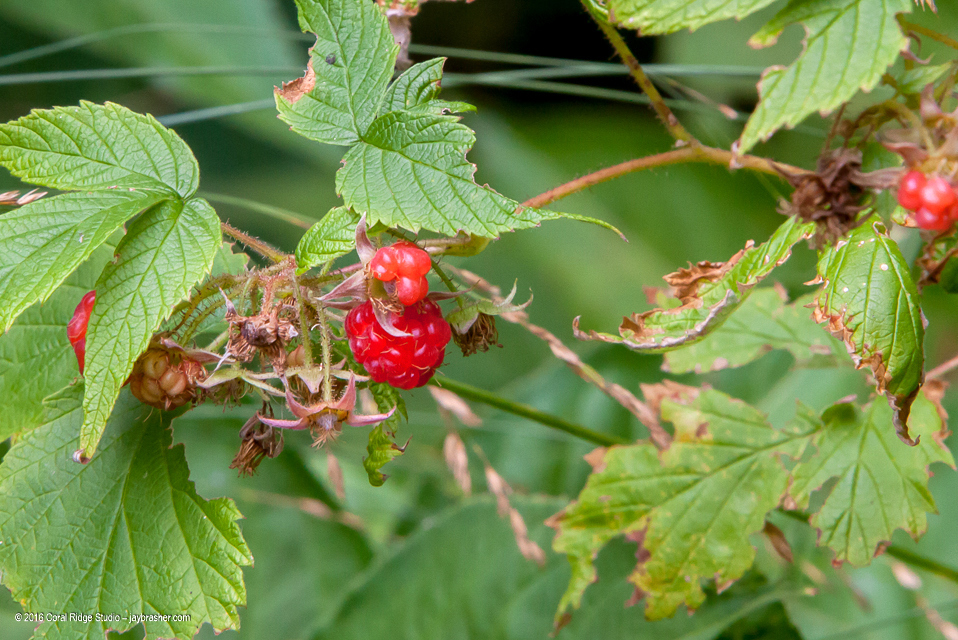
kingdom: Plantae
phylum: Tracheophyta
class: Magnoliopsida
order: Rosales
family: Rosaceae
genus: Rubus
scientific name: Rubus idaeus
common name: Raspberry
